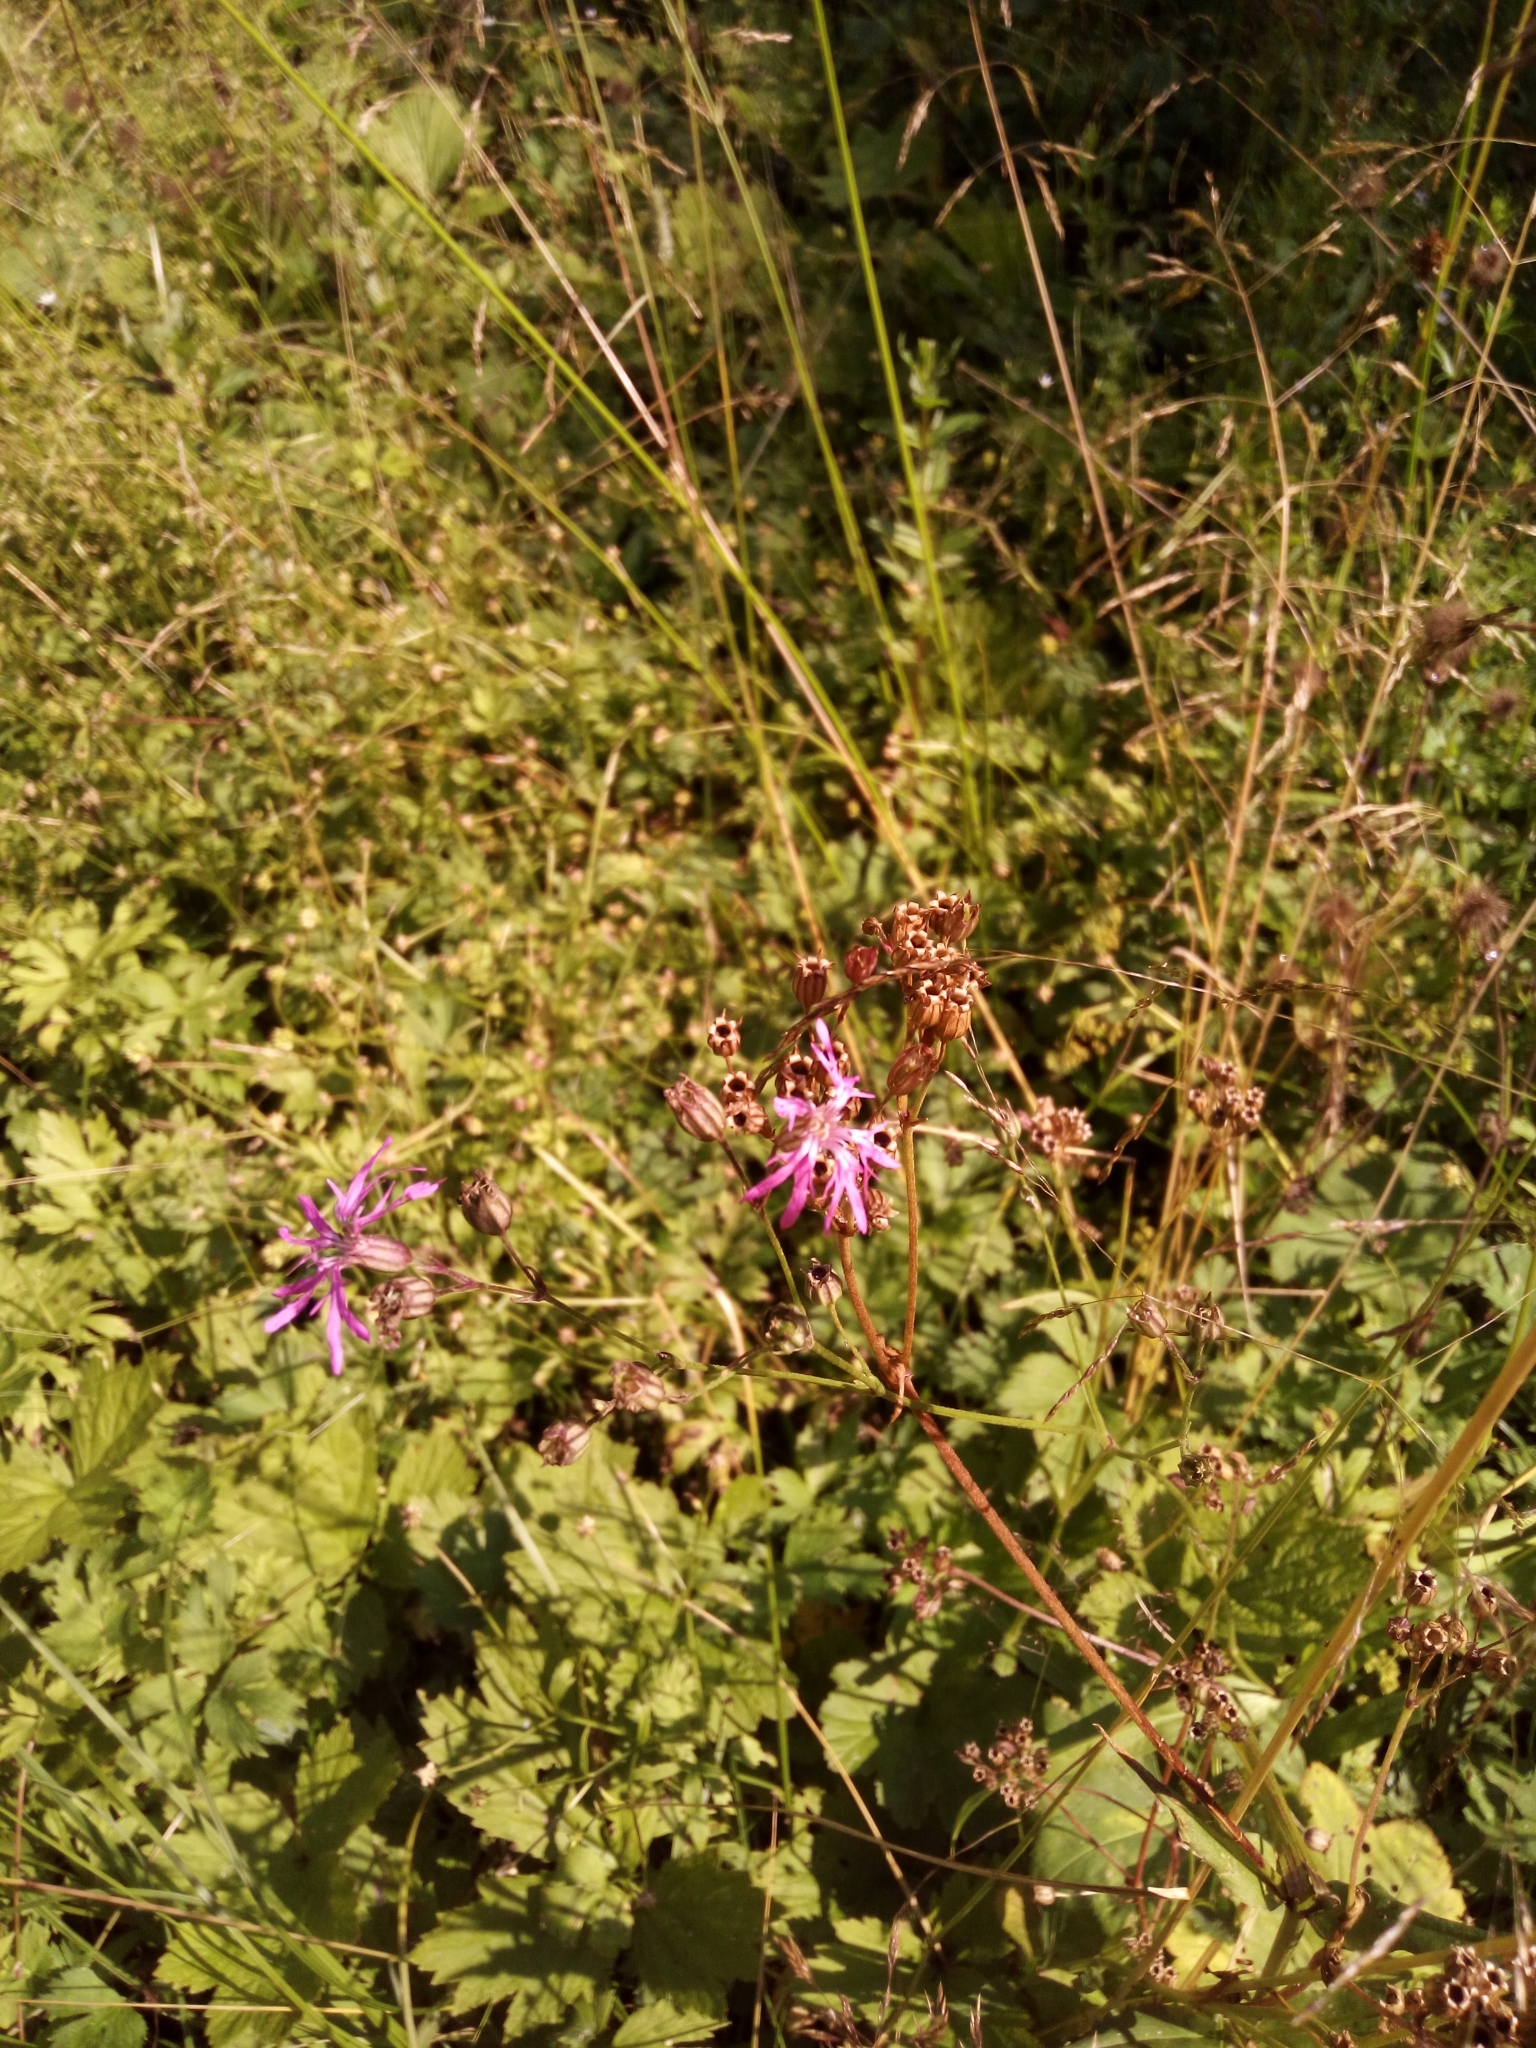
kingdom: Plantae
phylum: Tracheophyta
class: Magnoliopsida
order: Caryophyllales
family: Caryophyllaceae
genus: Silene
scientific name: Silene flos-cuculi
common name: Ragged-robin
